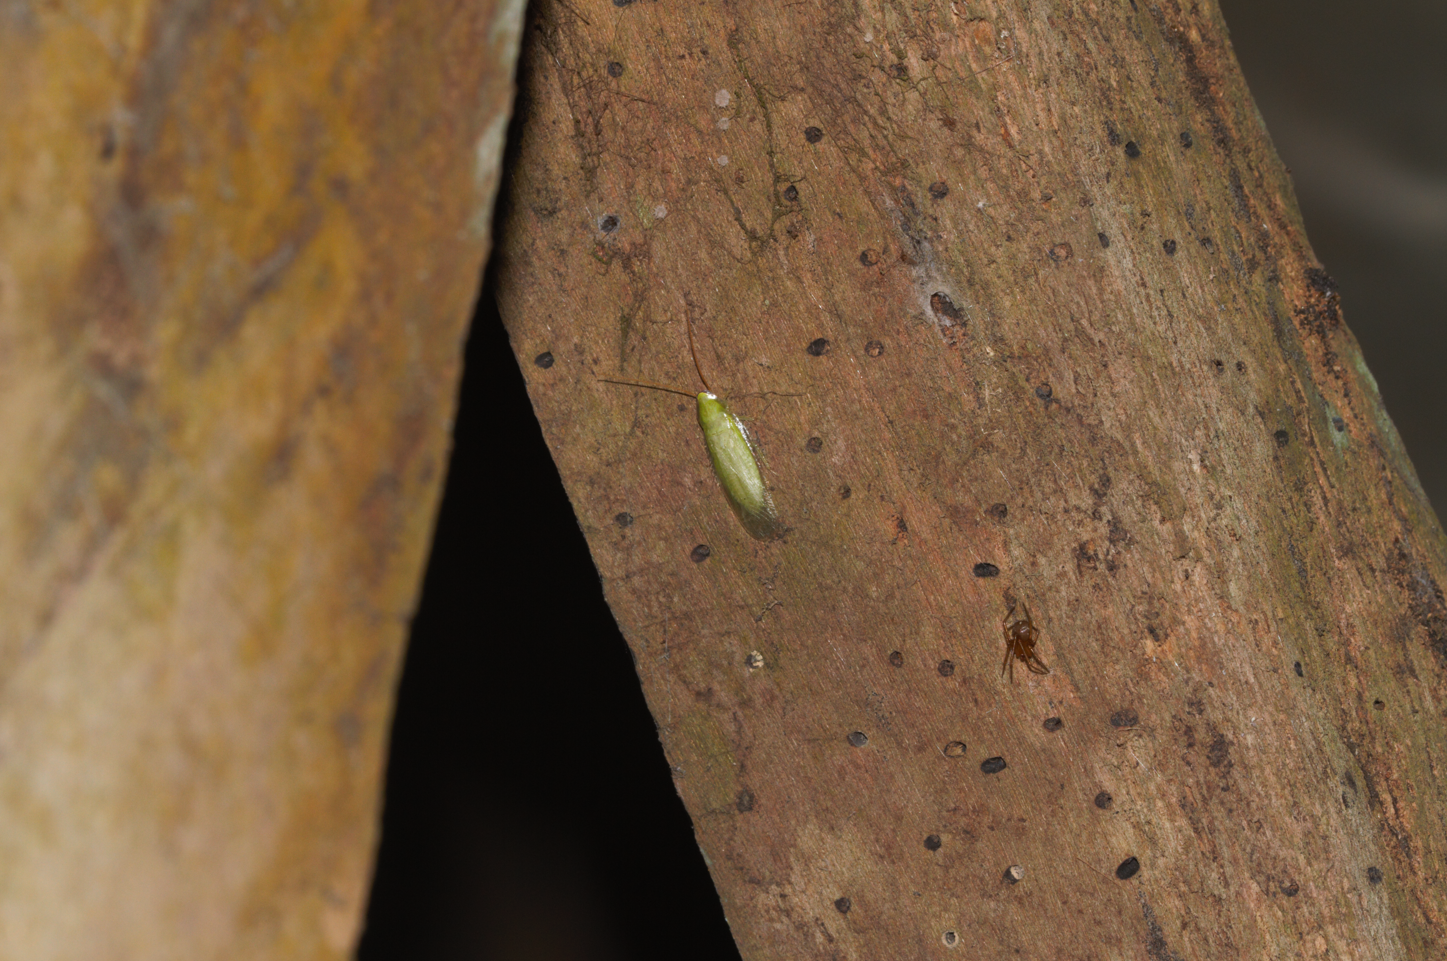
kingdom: Animalia
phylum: Arthropoda
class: Insecta
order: Blattodea
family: Blaberidae
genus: Panchlora
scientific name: Panchlora
